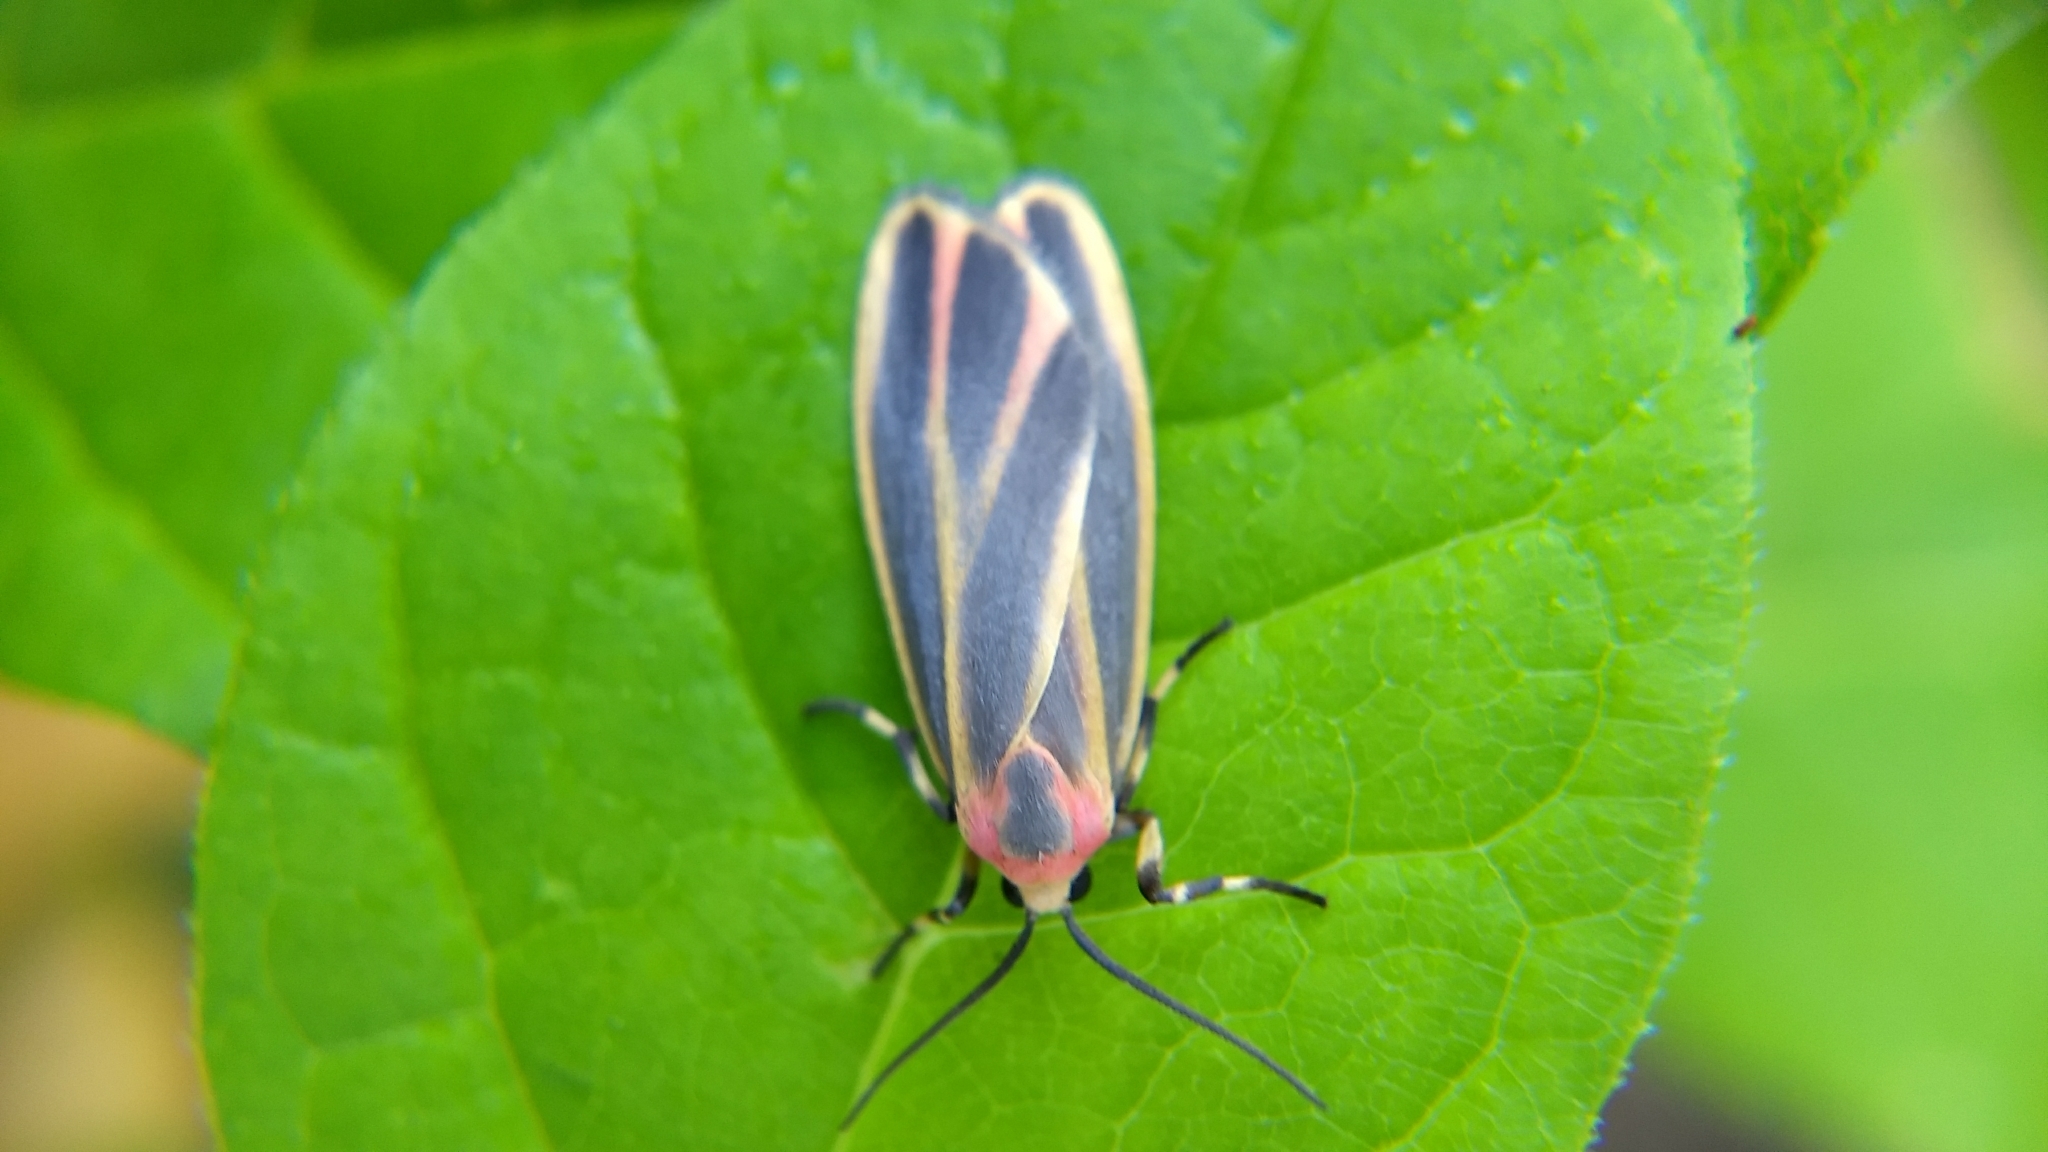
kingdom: Animalia
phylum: Arthropoda
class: Insecta
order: Lepidoptera
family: Erebidae
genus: Hypoprepia
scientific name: Hypoprepia fucosa
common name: Painted lichen moth
